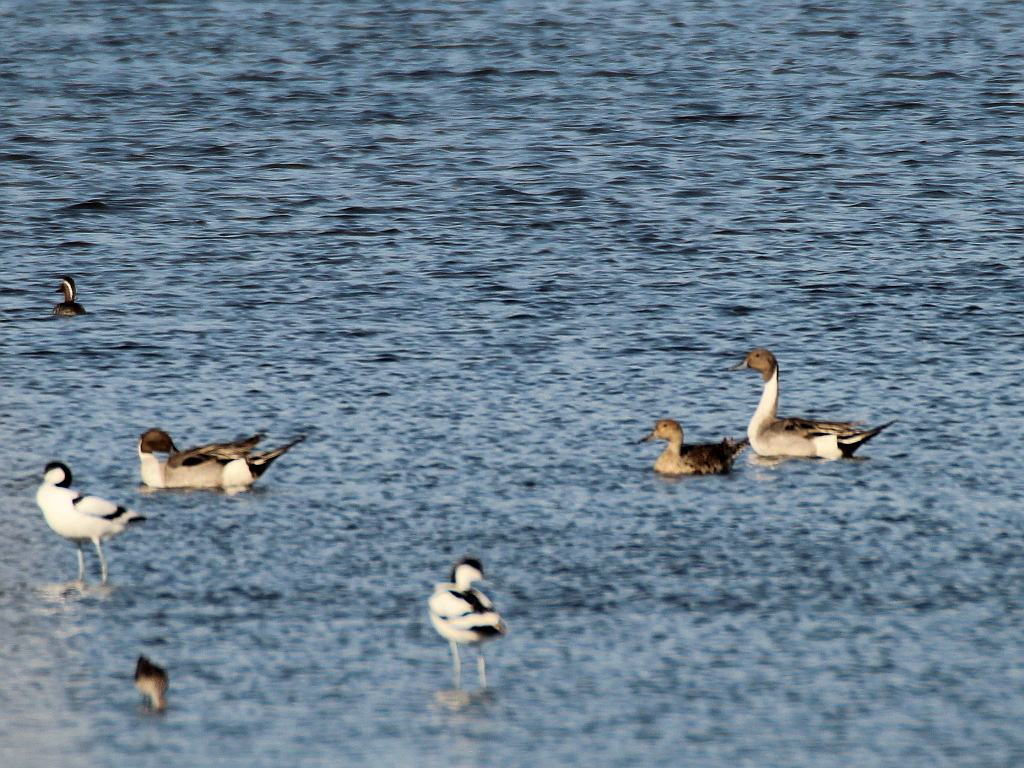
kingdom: Animalia
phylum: Chordata
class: Aves
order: Anseriformes
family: Anatidae
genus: Anas
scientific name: Anas acuta
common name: Northern pintail
